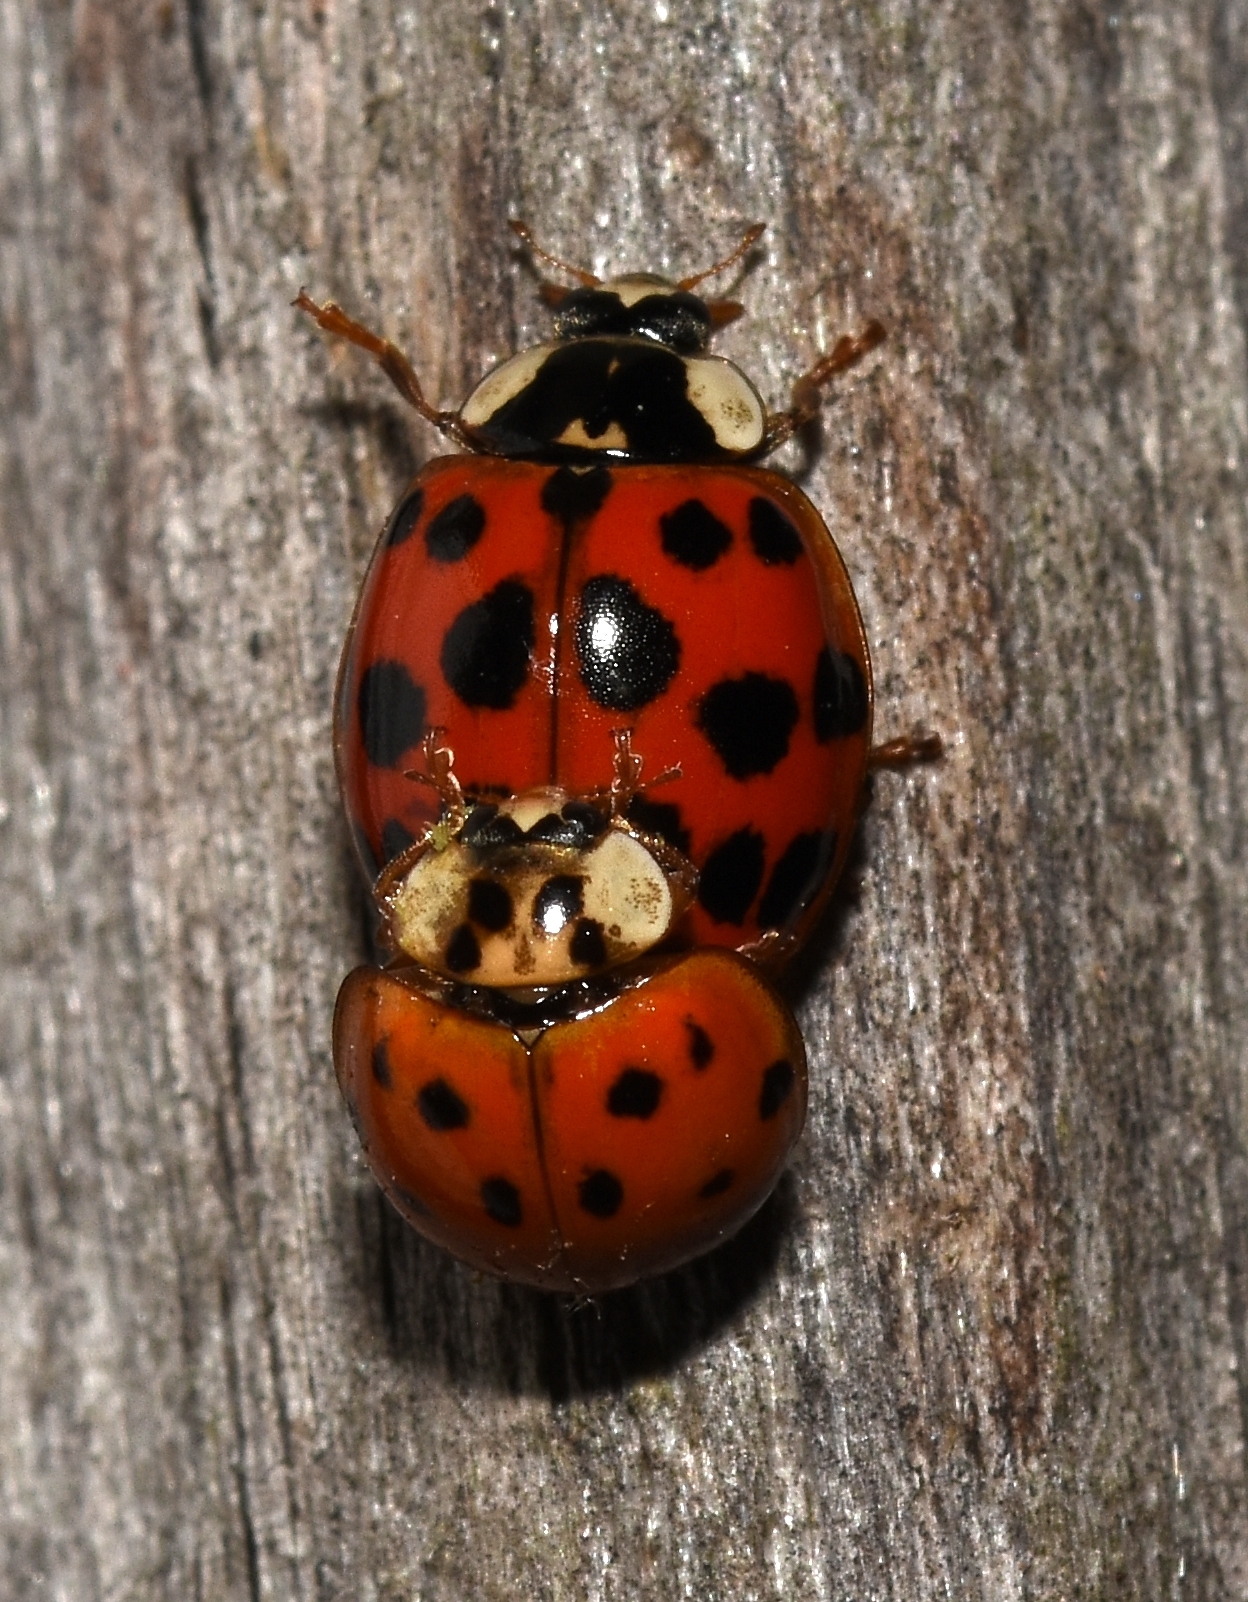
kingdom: Fungi
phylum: Ascomycota
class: Laboulbeniomycetes
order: Laboulbeniales
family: Laboulbeniaceae
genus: Hesperomyces
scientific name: Hesperomyces harmoniae
